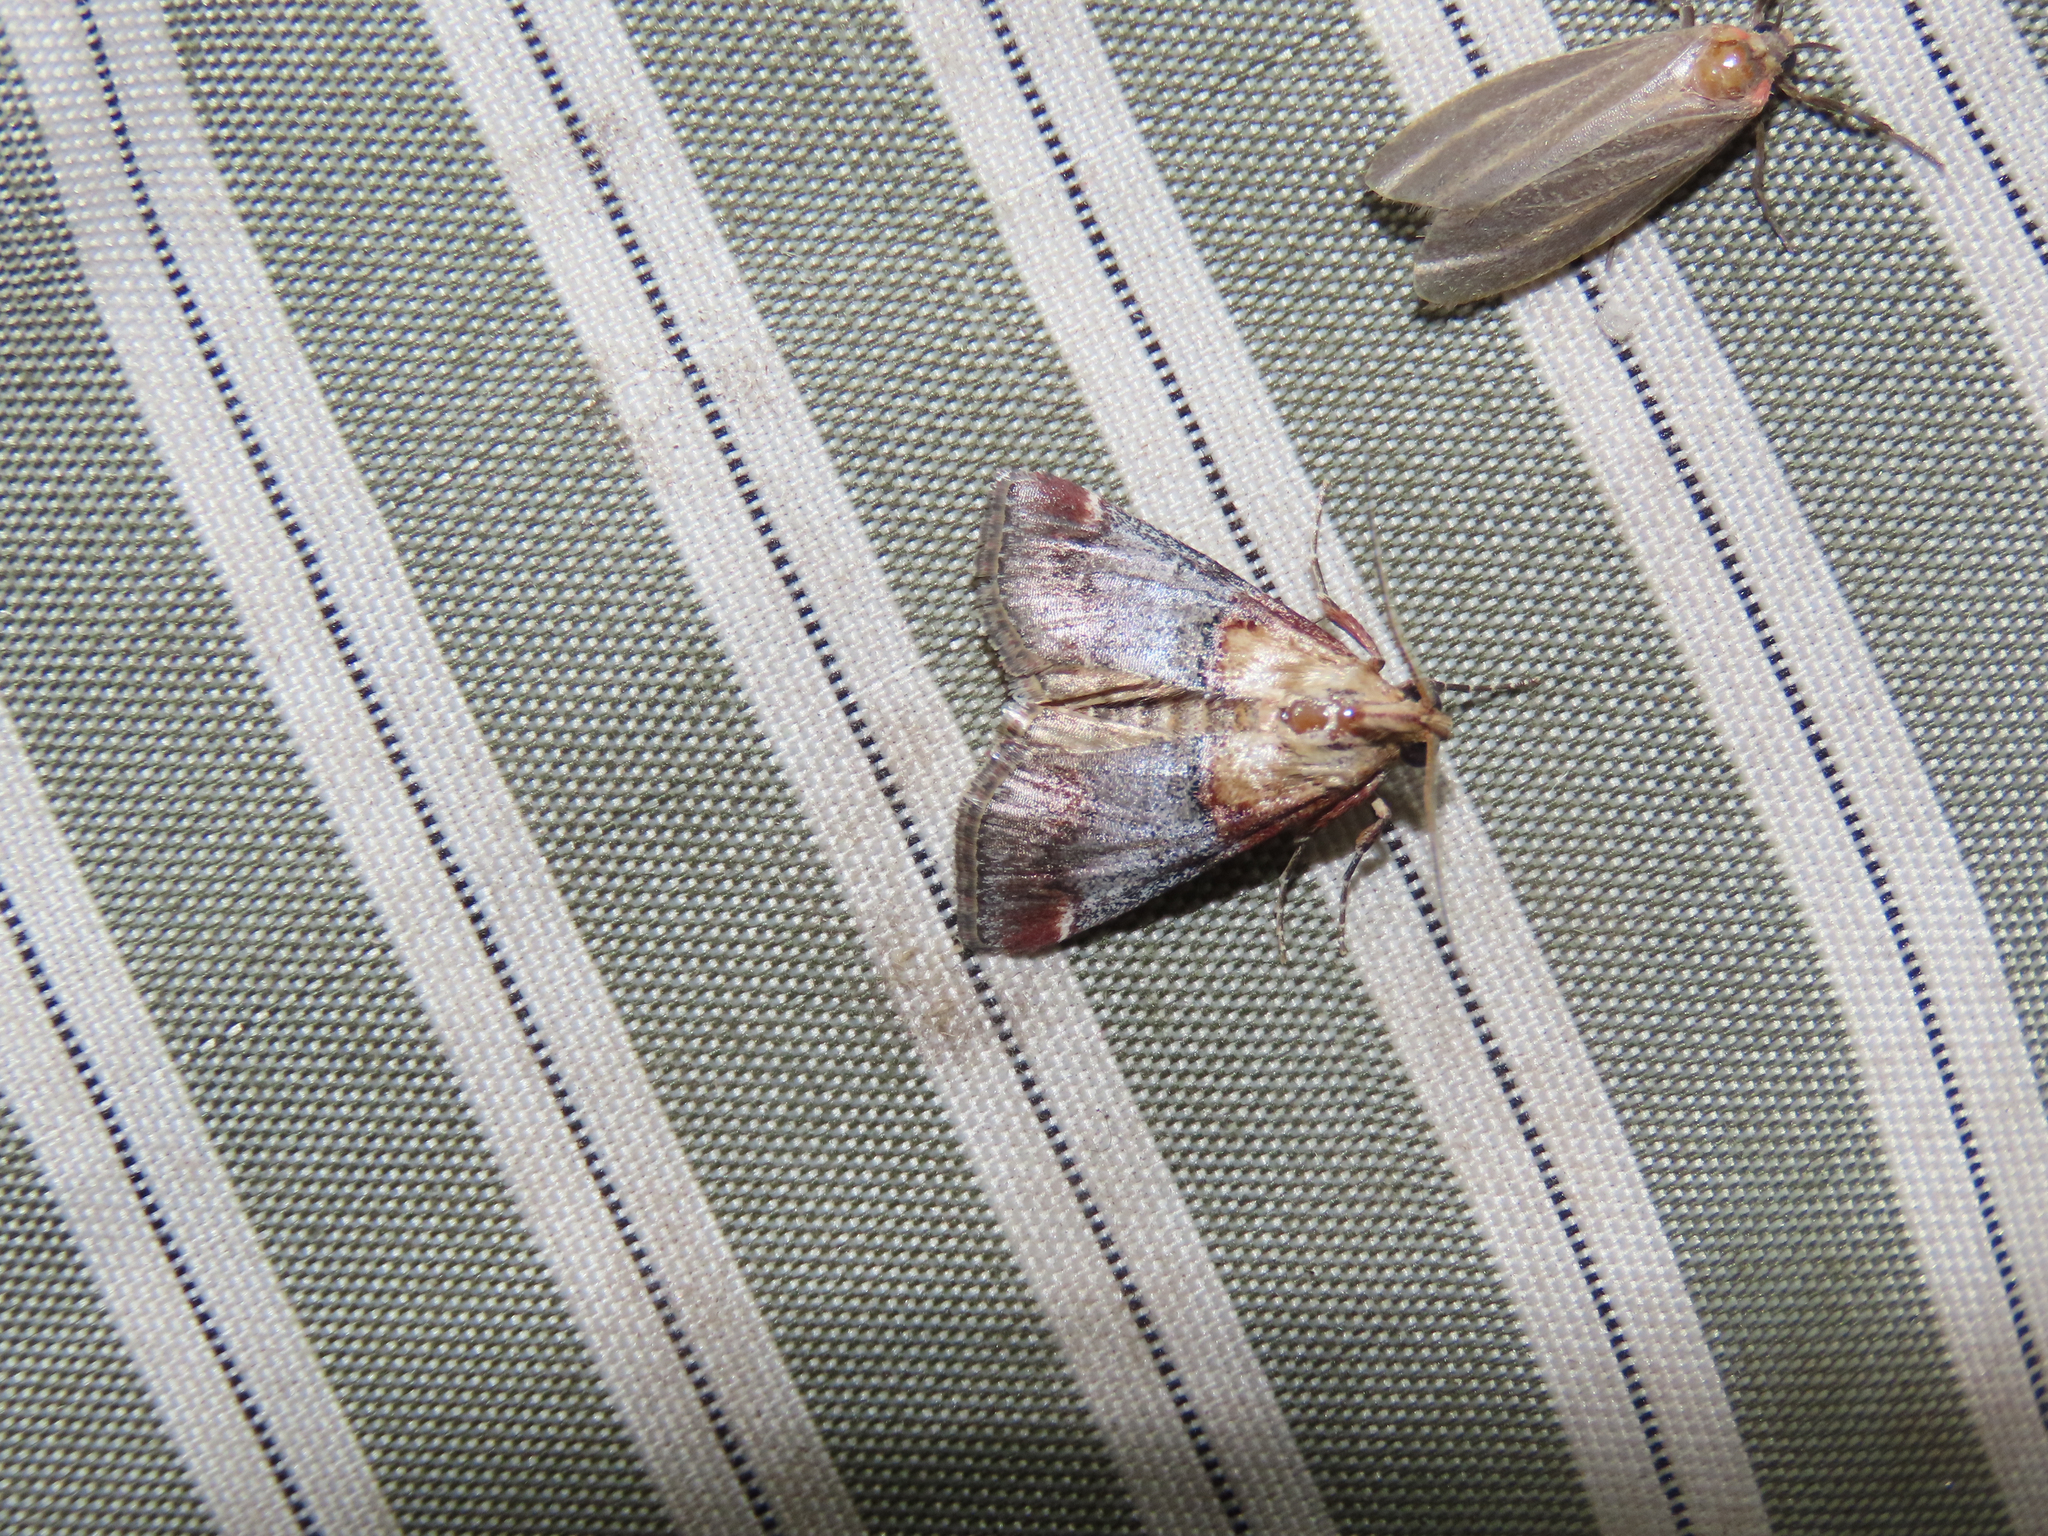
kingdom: Animalia
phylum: Arthropoda
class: Insecta
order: Lepidoptera
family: Pyralidae
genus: Cacozelia
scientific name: Cacozelia basiochrealis
